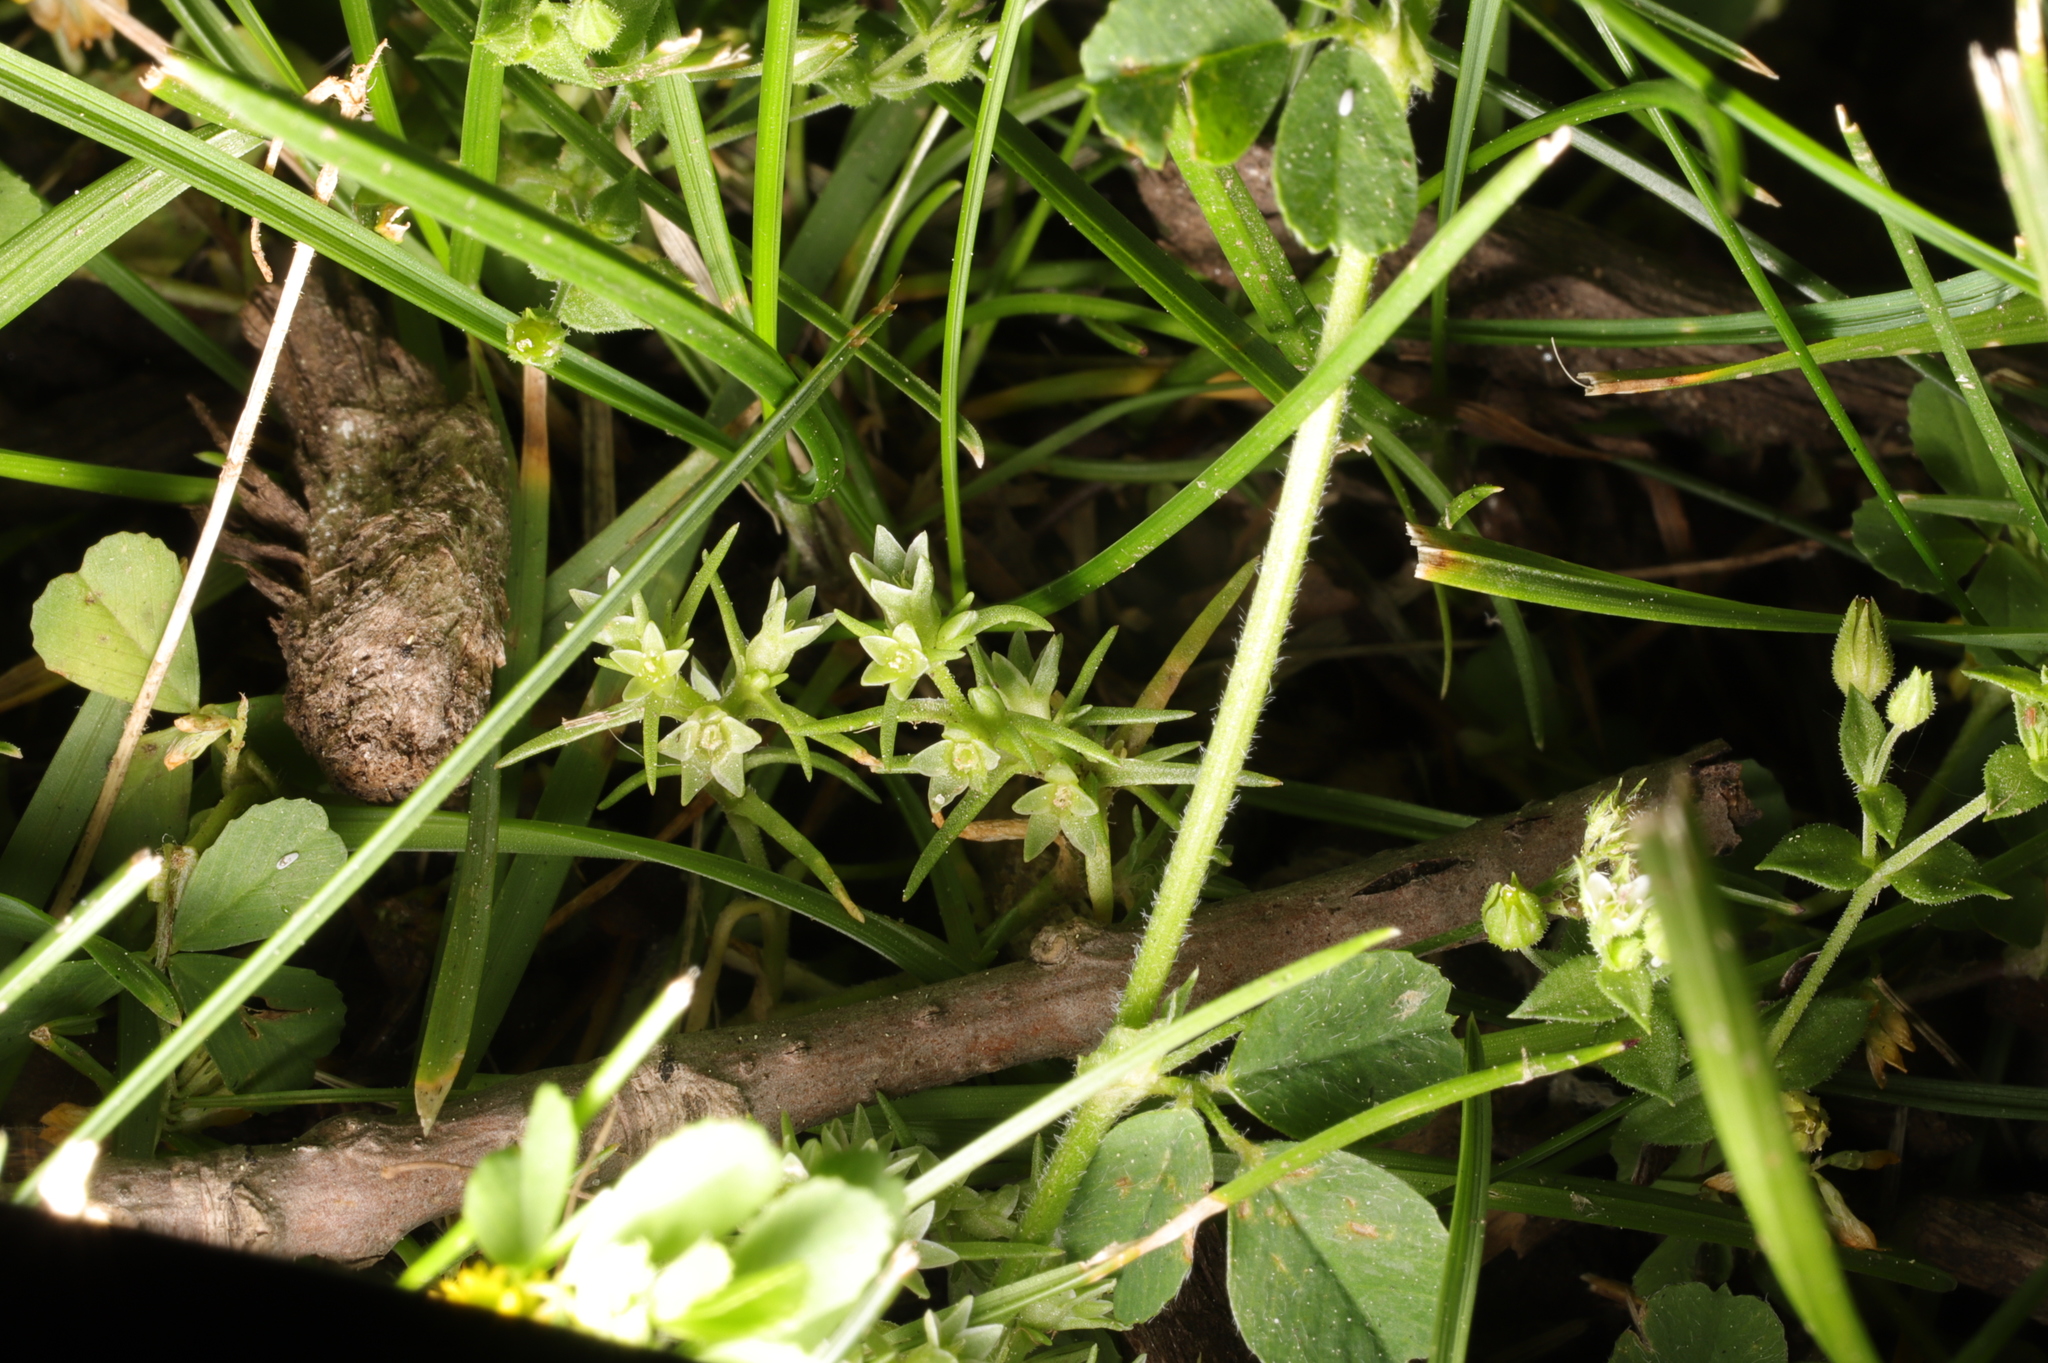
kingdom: Plantae
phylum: Tracheophyta
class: Magnoliopsida
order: Caryophyllales
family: Caryophyllaceae
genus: Scleranthus
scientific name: Scleranthus annuus
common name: Annual knawel
